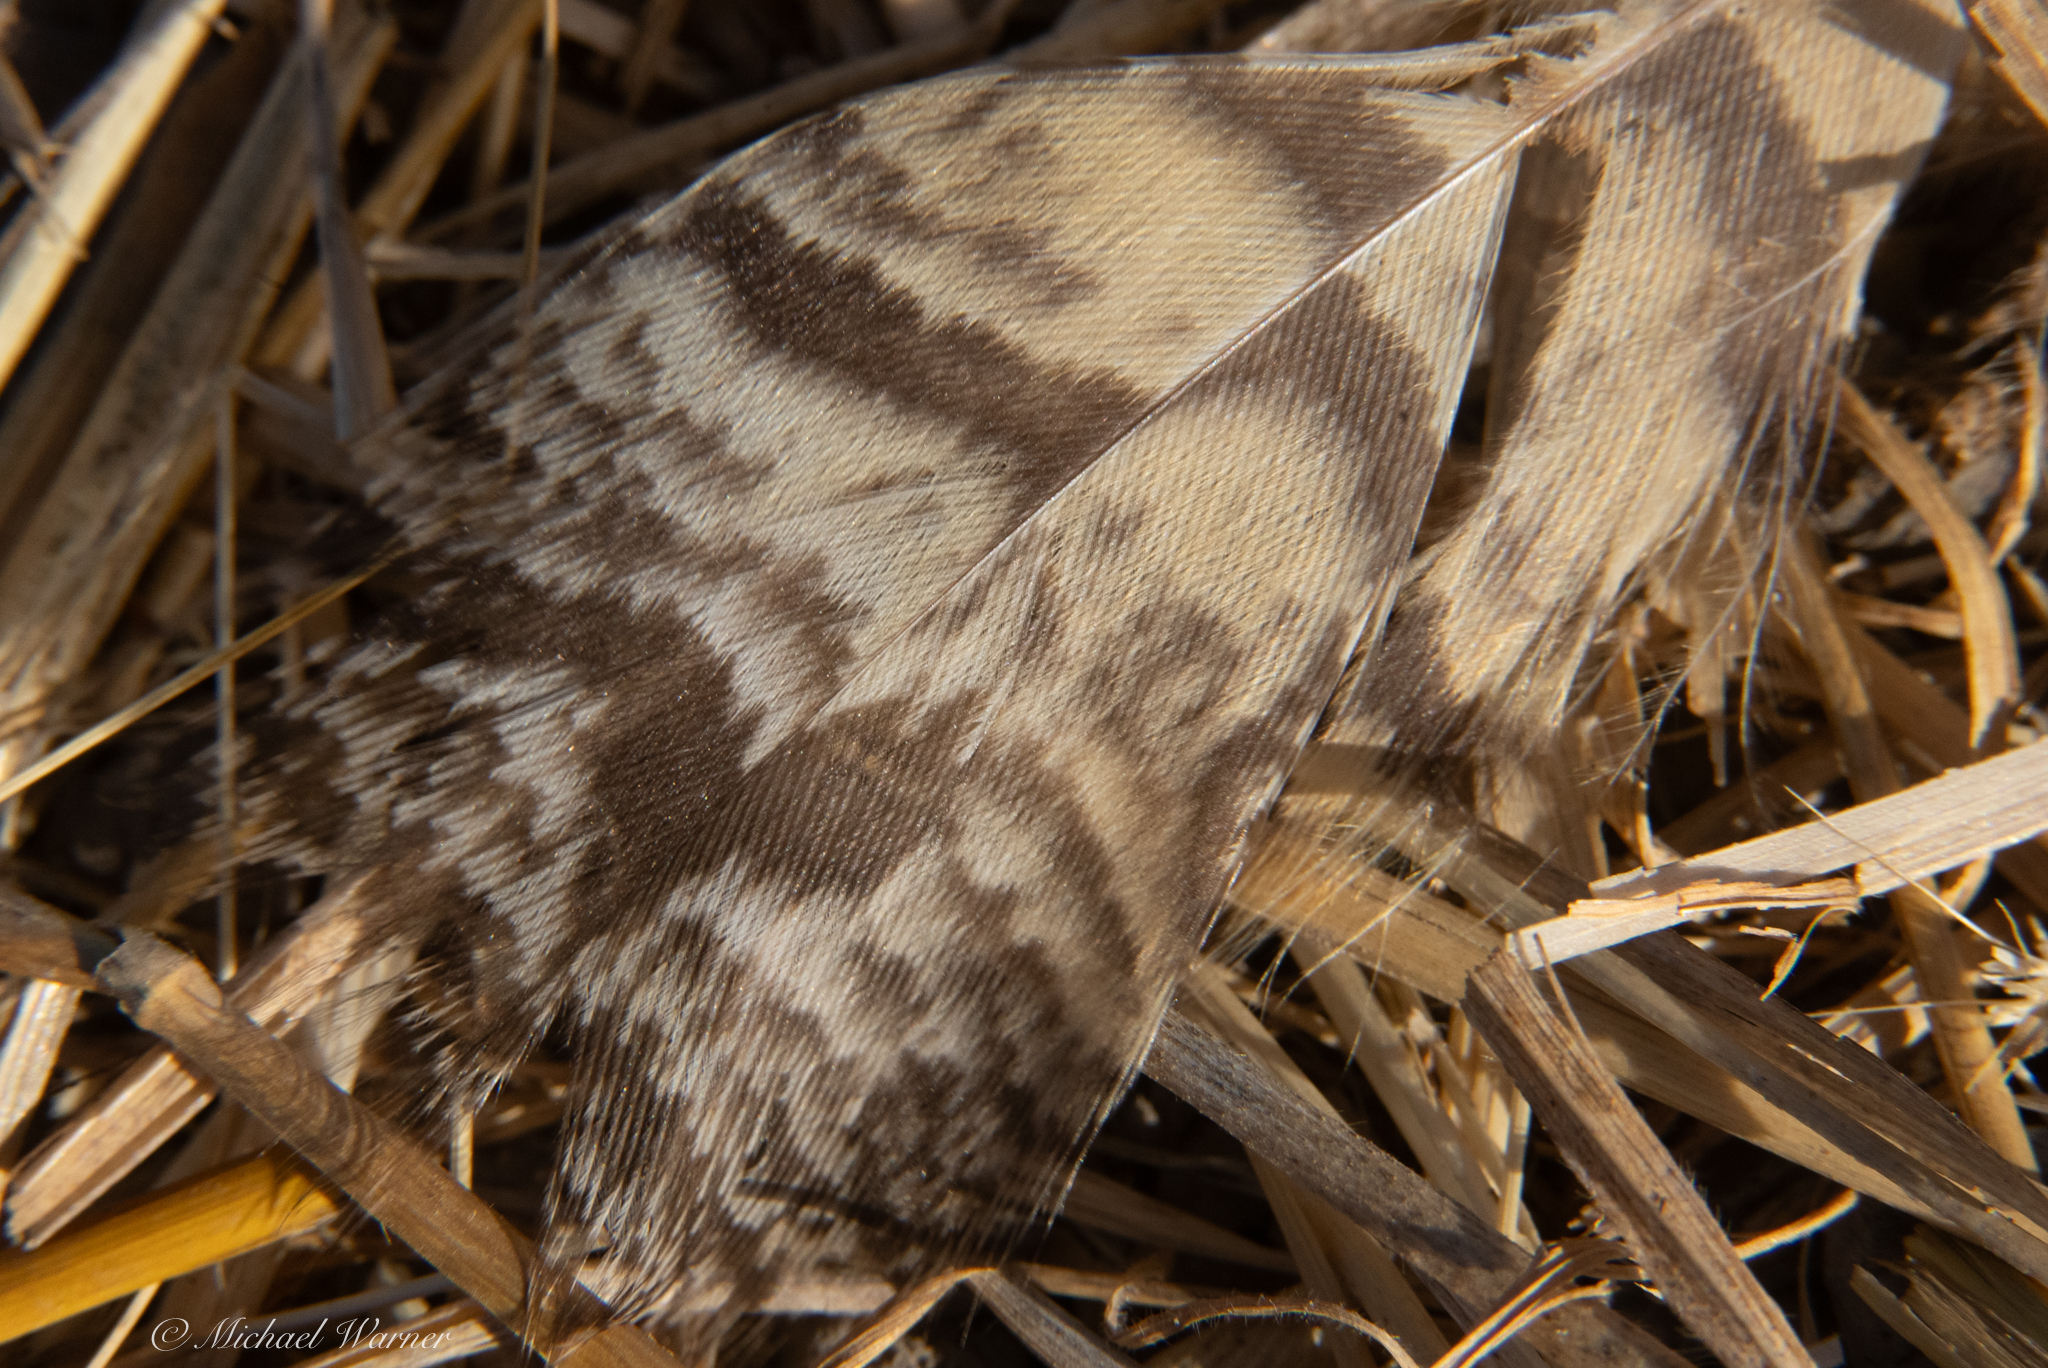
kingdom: Animalia
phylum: Chordata
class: Aves
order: Strigiformes
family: Strigidae
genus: Bubo
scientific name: Bubo virginianus
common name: Great horned owl
